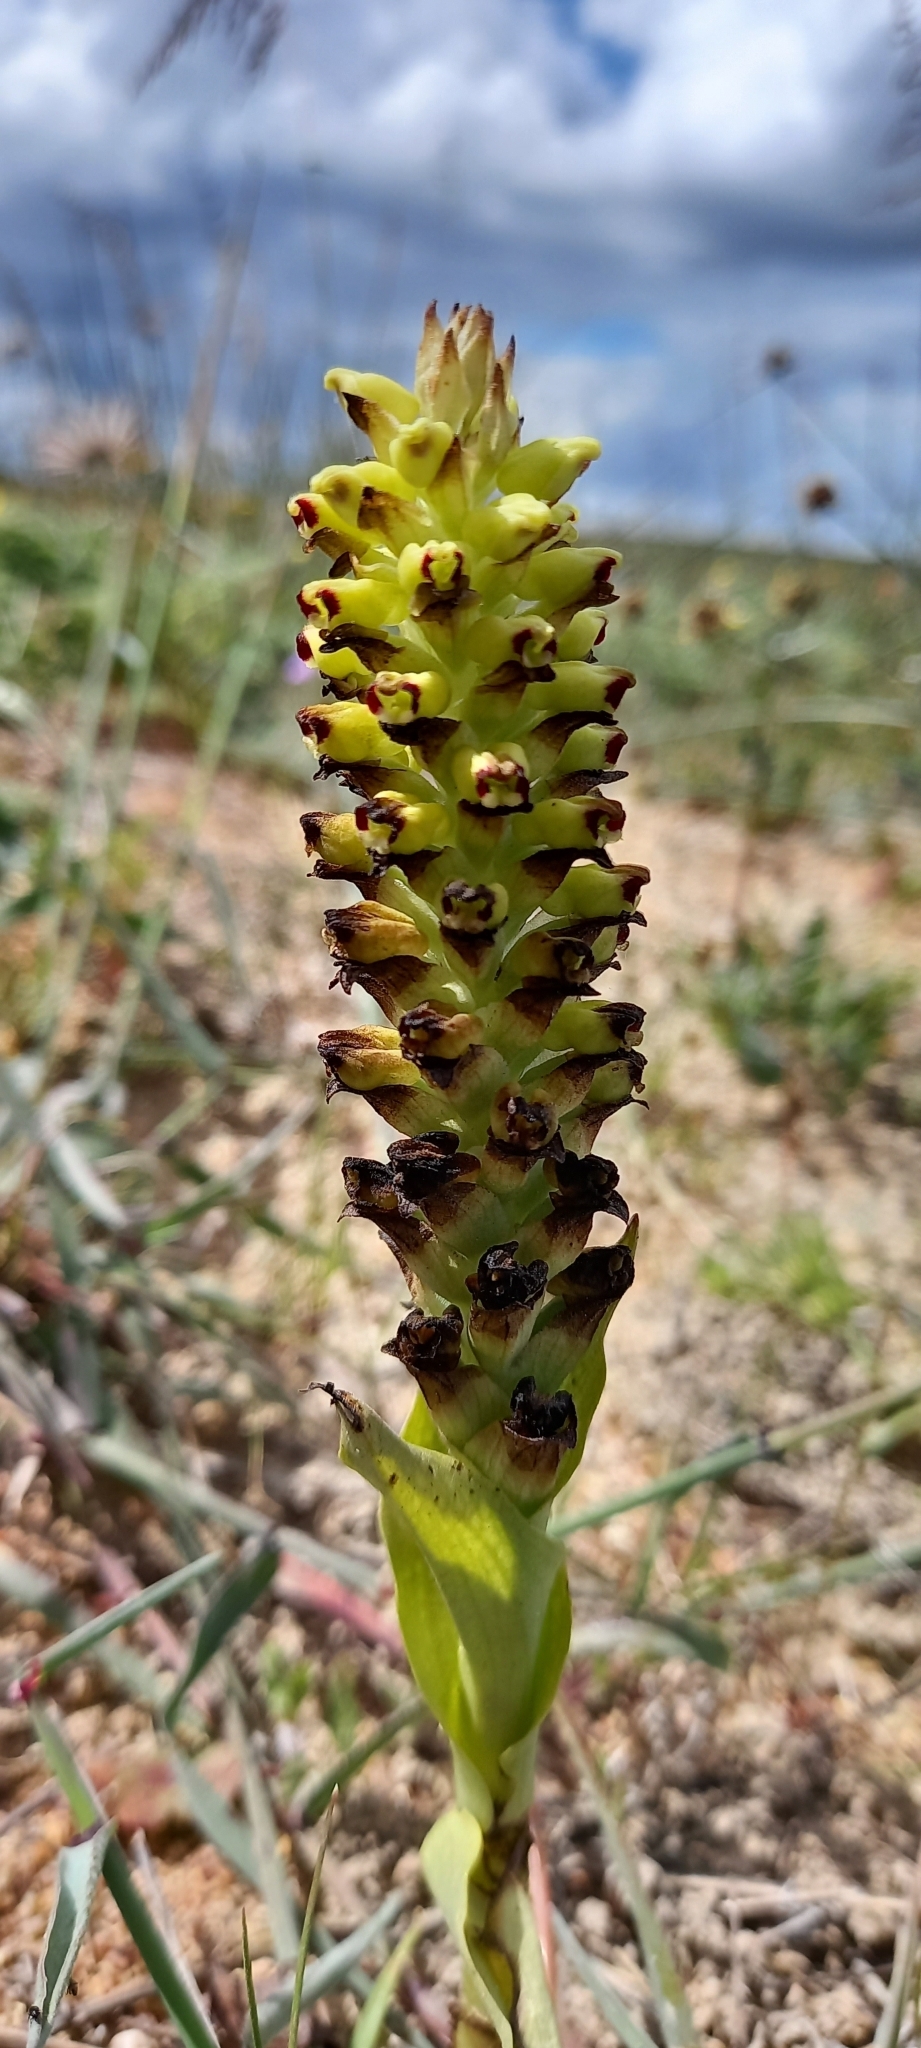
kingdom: Plantae
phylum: Tracheophyta
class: Liliopsida
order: Asparagales
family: Orchidaceae
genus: Corycium
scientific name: Corycium orobanchoides
